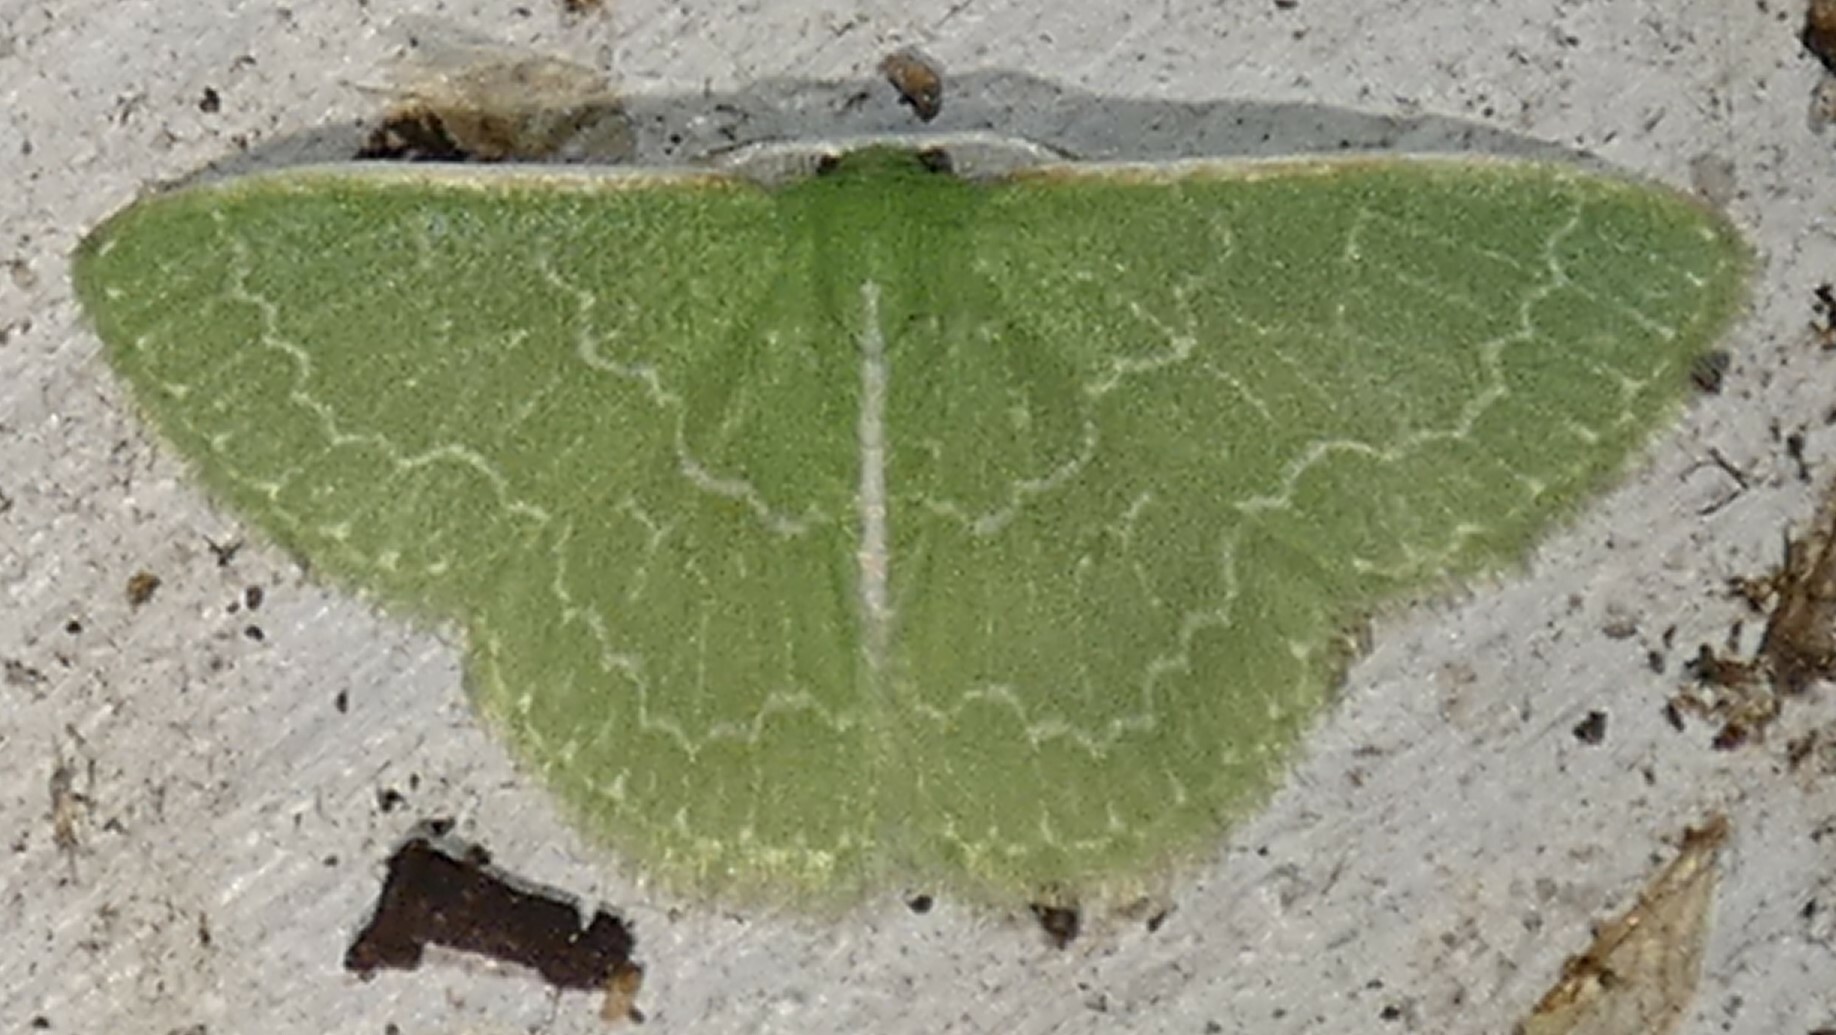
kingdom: Animalia
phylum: Arthropoda
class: Insecta
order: Lepidoptera
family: Geometridae
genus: Synchlora
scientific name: Synchlora frondaria
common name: Southern emerald
